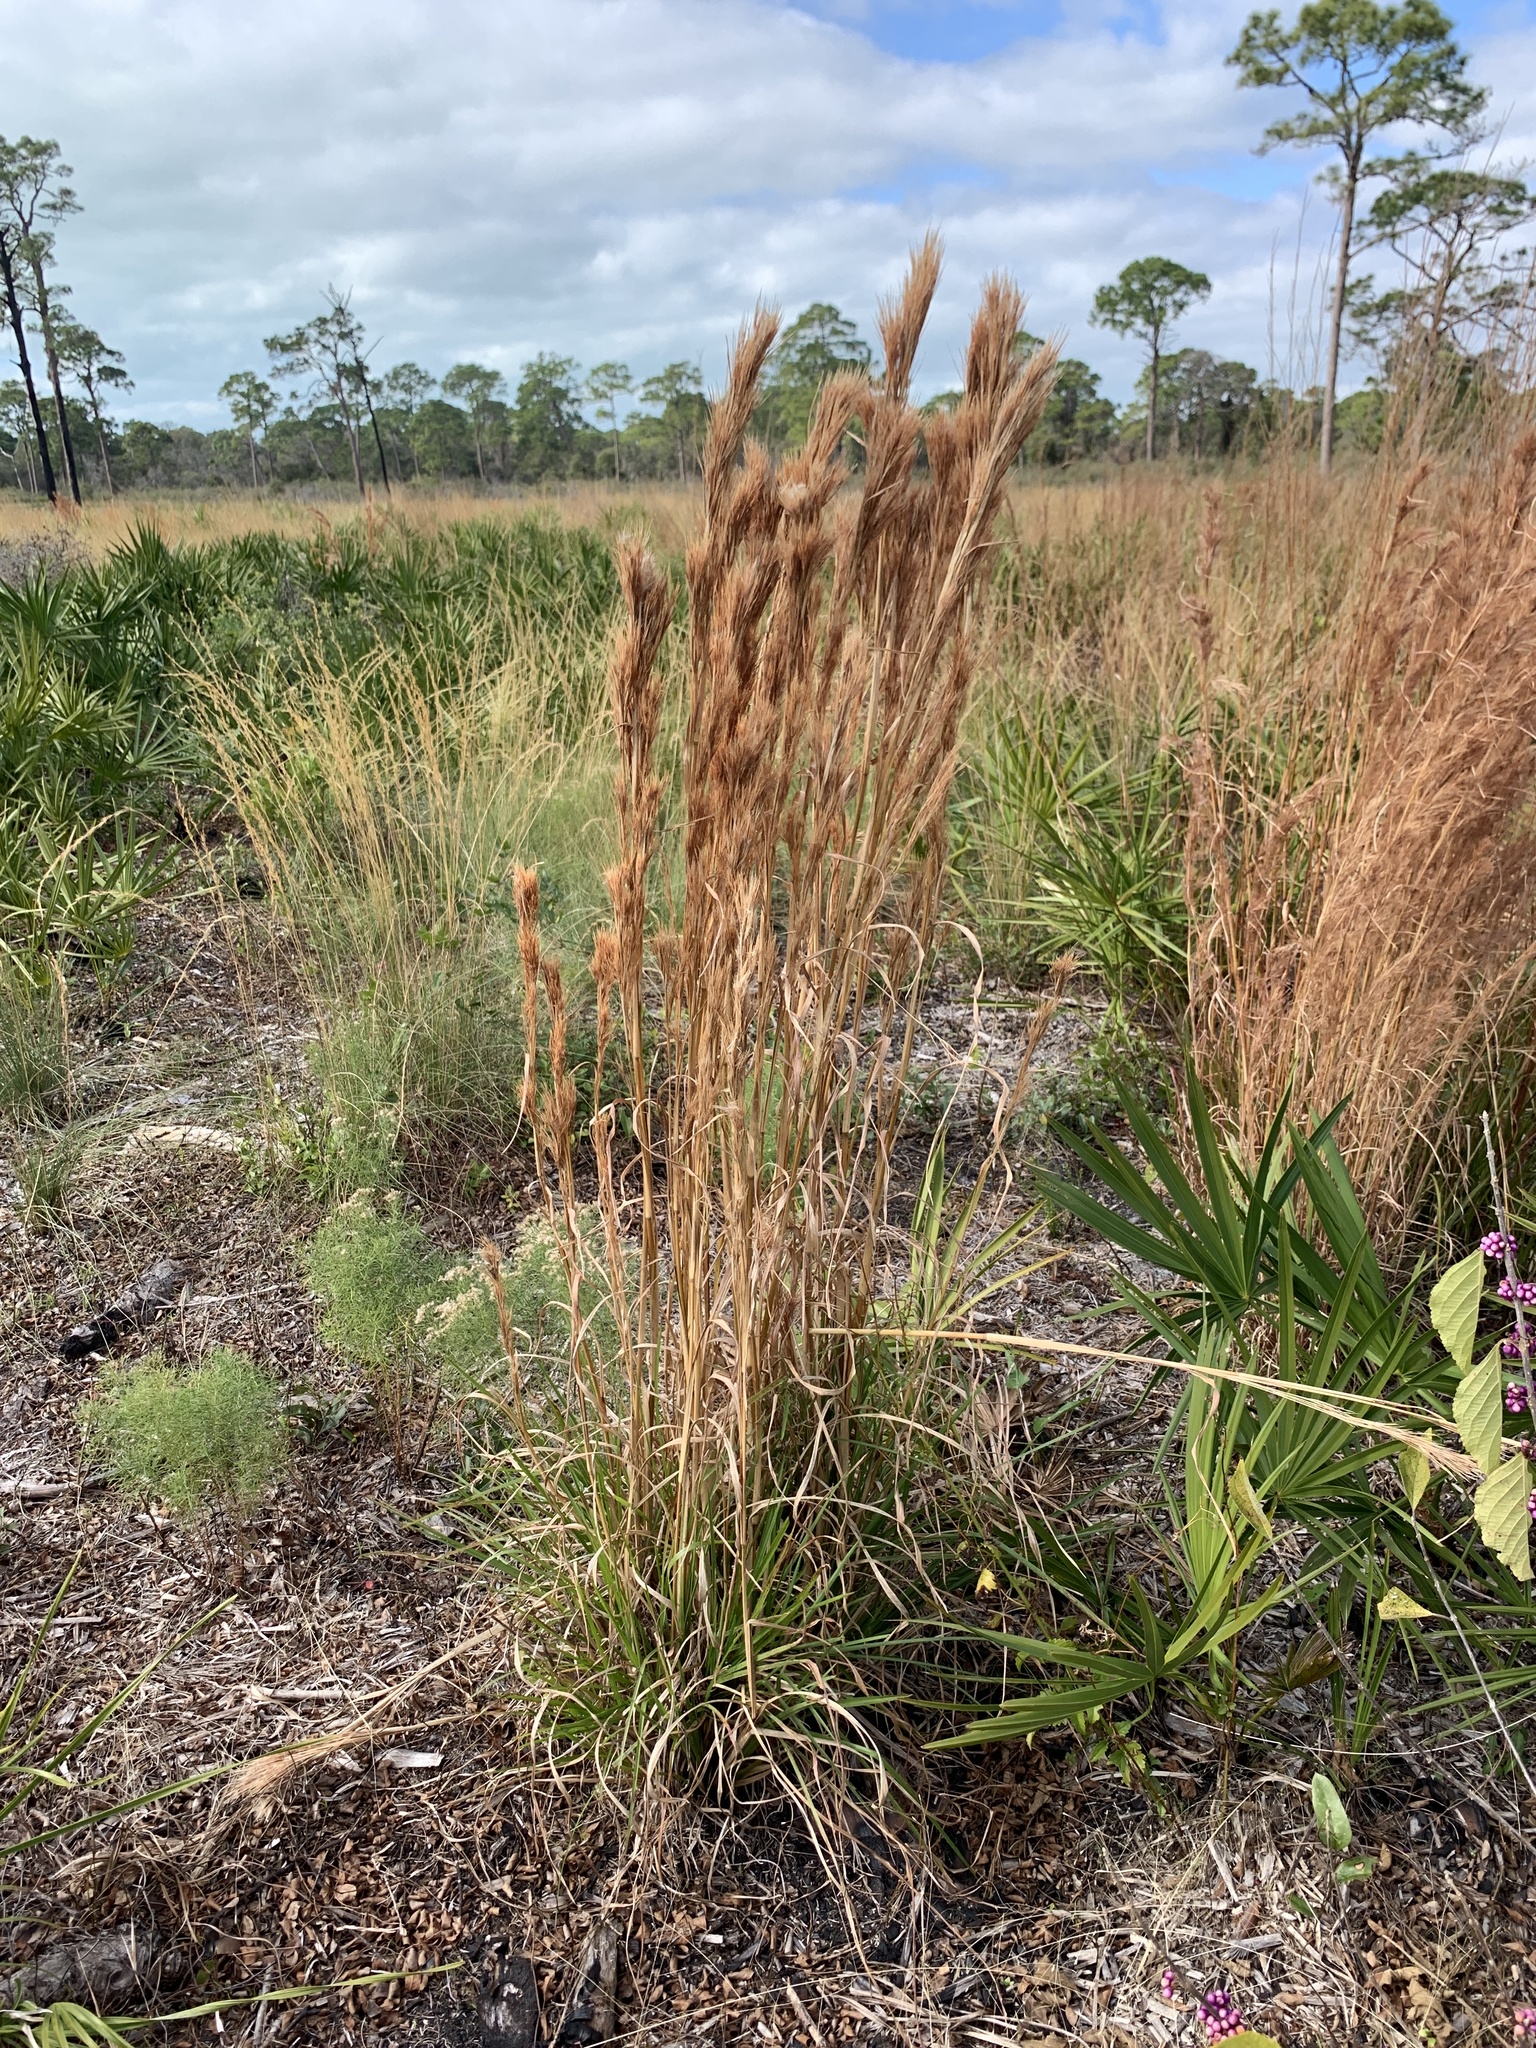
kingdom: Plantae
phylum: Tracheophyta
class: Liliopsida
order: Poales
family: Poaceae
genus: Andropogon
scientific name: Andropogon tenuispatheus
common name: Bushy bluestem
